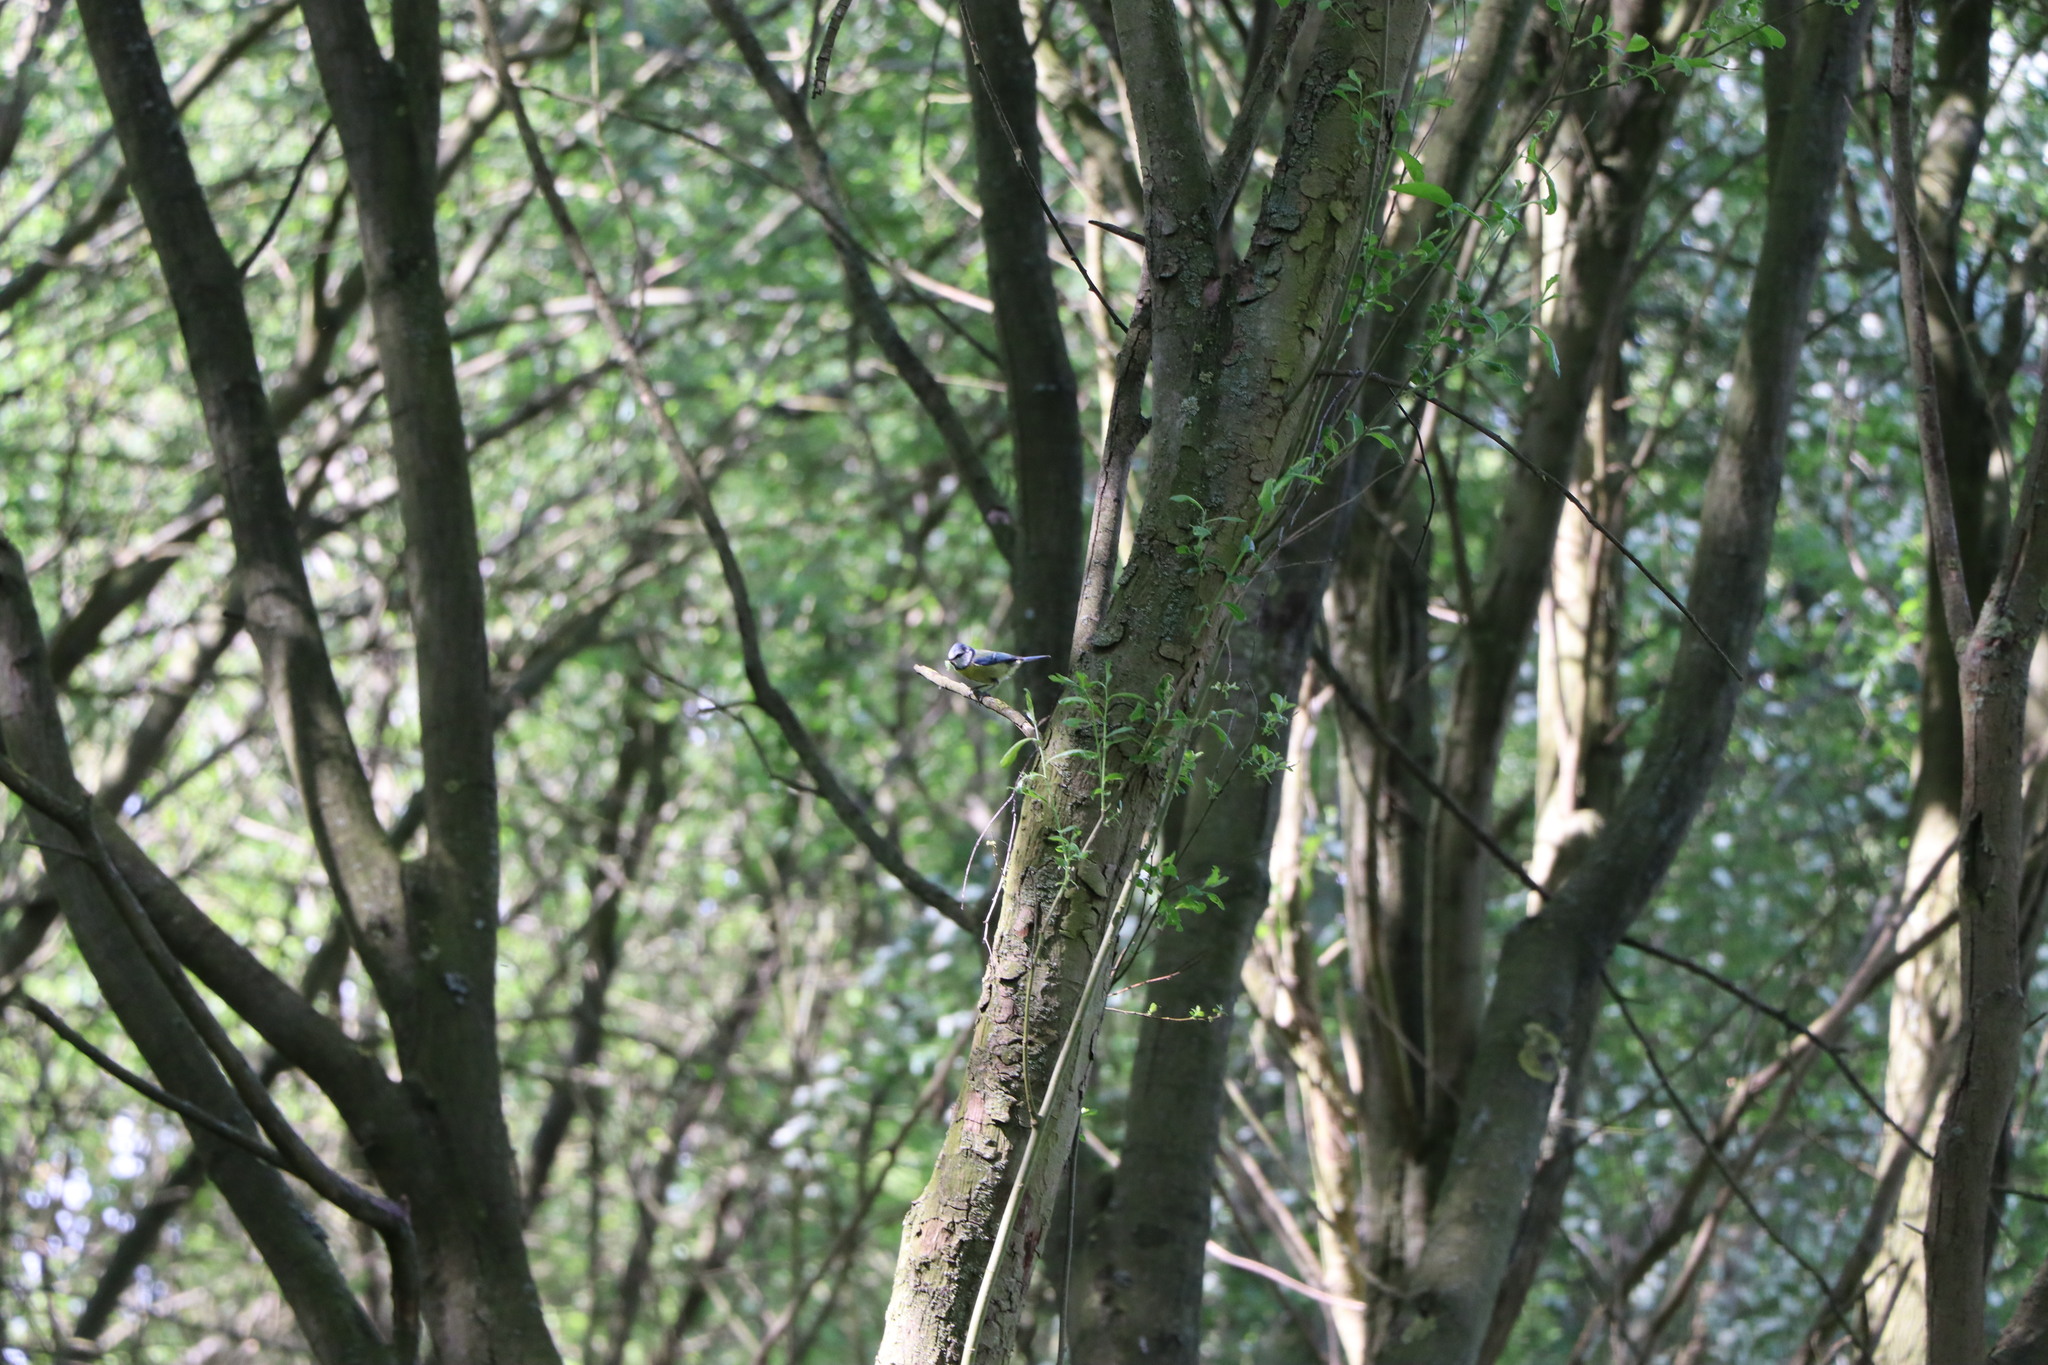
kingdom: Animalia
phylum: Chordata
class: Aves
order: Passeriformes
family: Paridae
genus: Cyanistes
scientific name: Cyanistes caeruleus
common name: Eurasian blue tit
